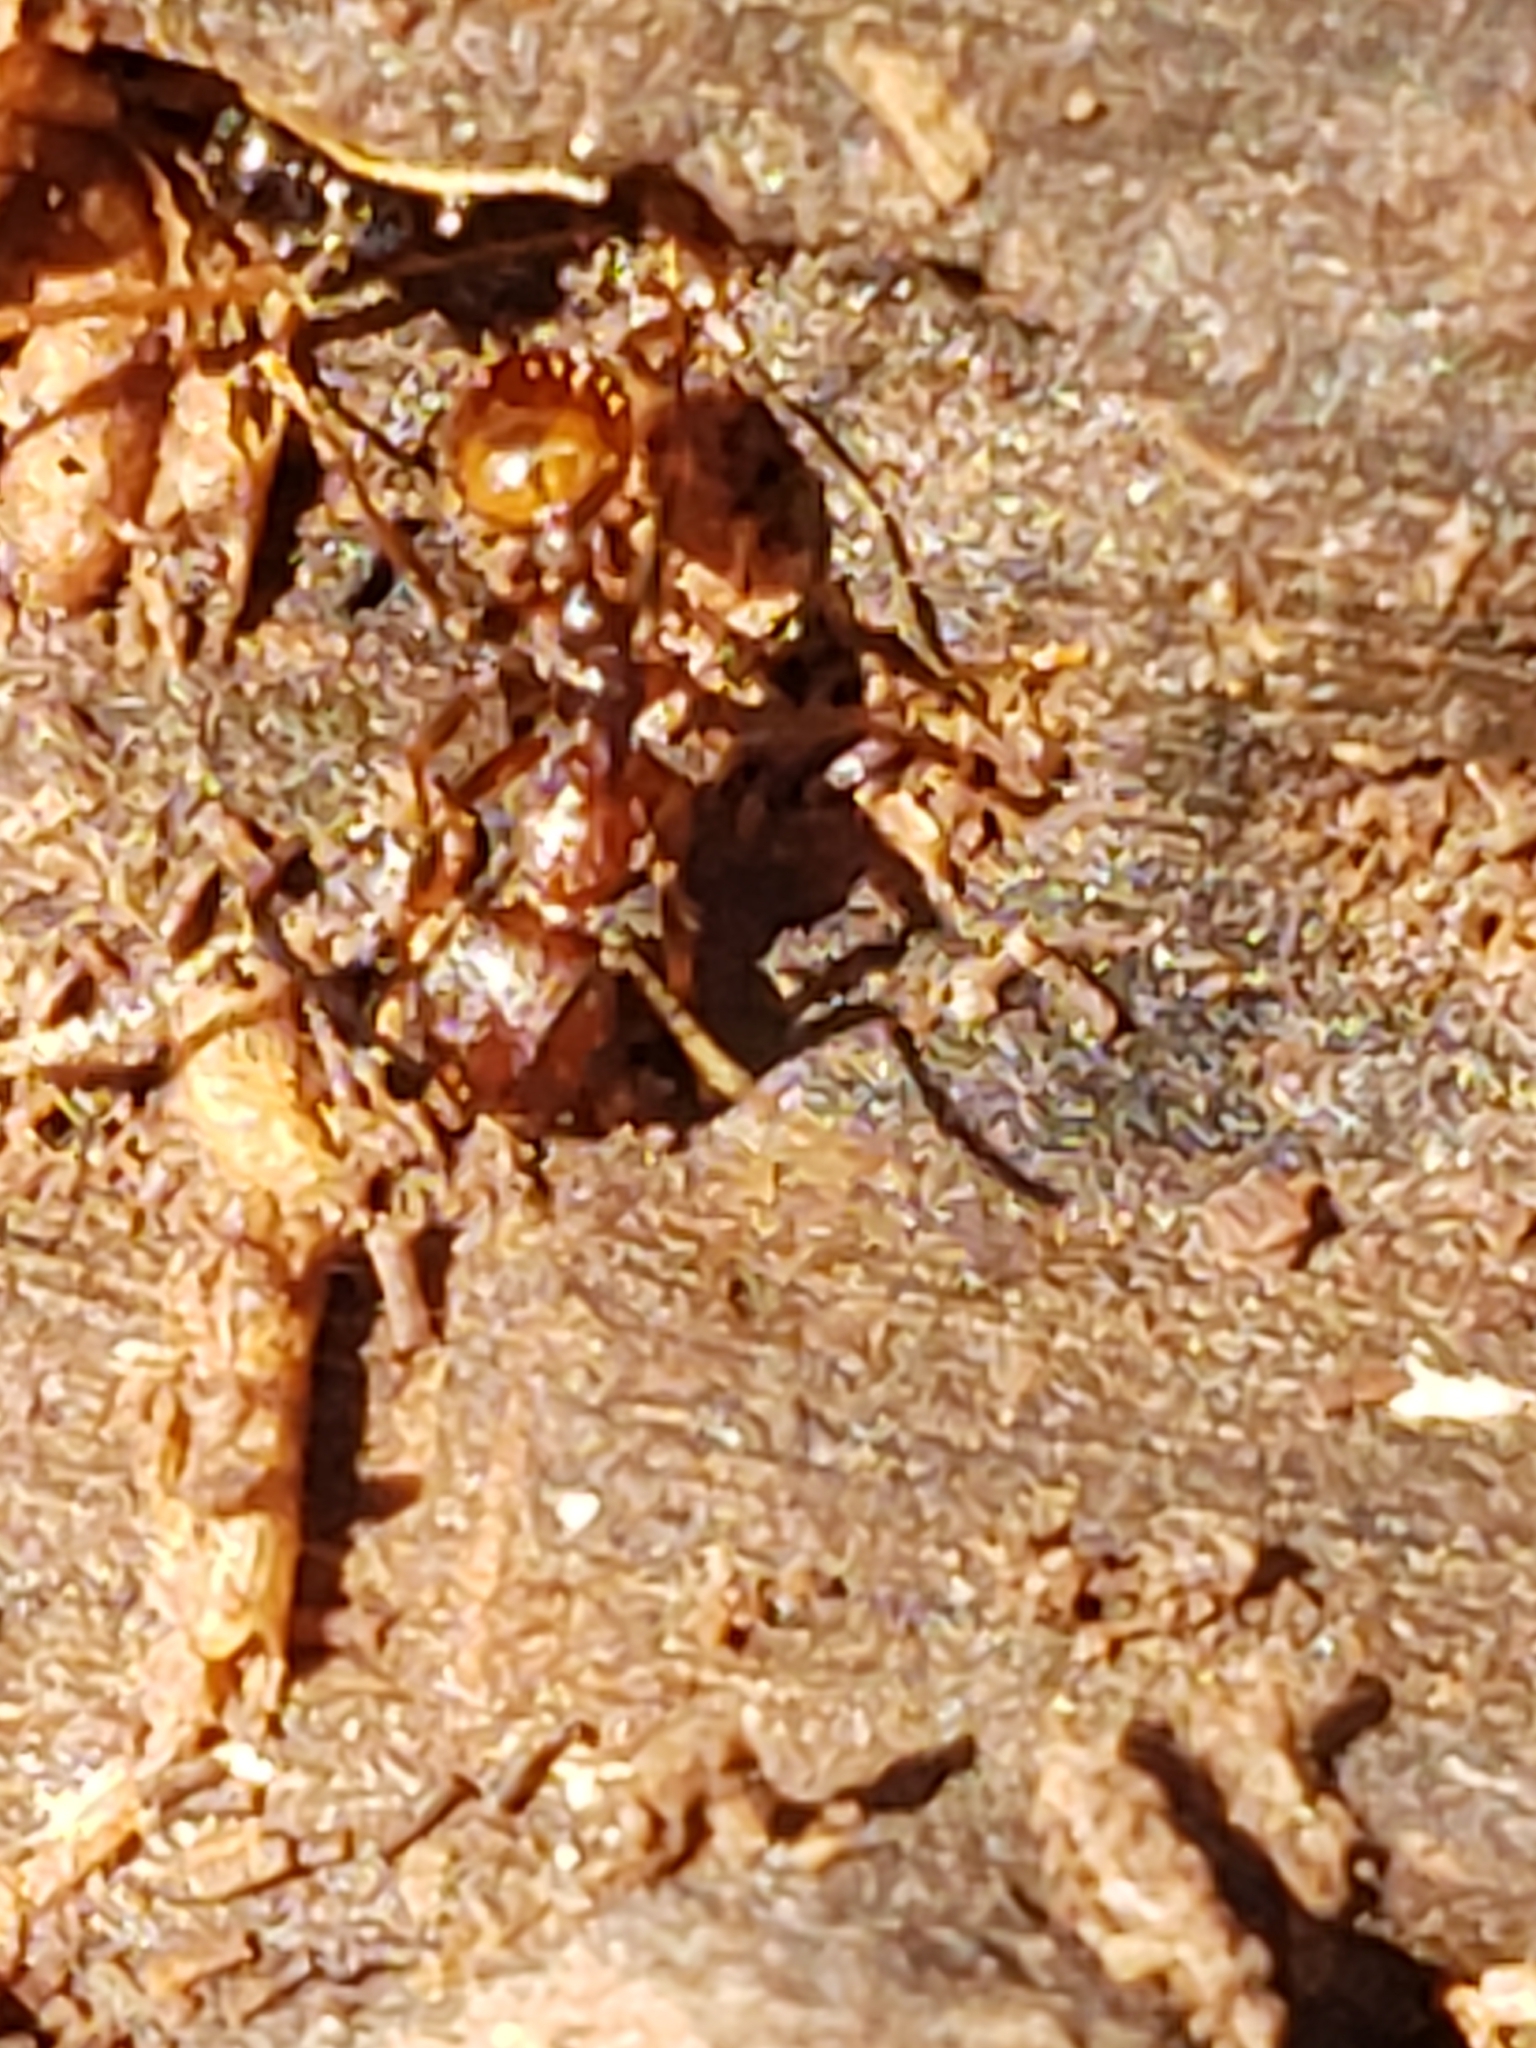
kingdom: Animalia
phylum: Arthropoda
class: Insecta
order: Hymenoptera
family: Formicidae
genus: Aphaenogaster
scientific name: Aphaenogaster fulva
